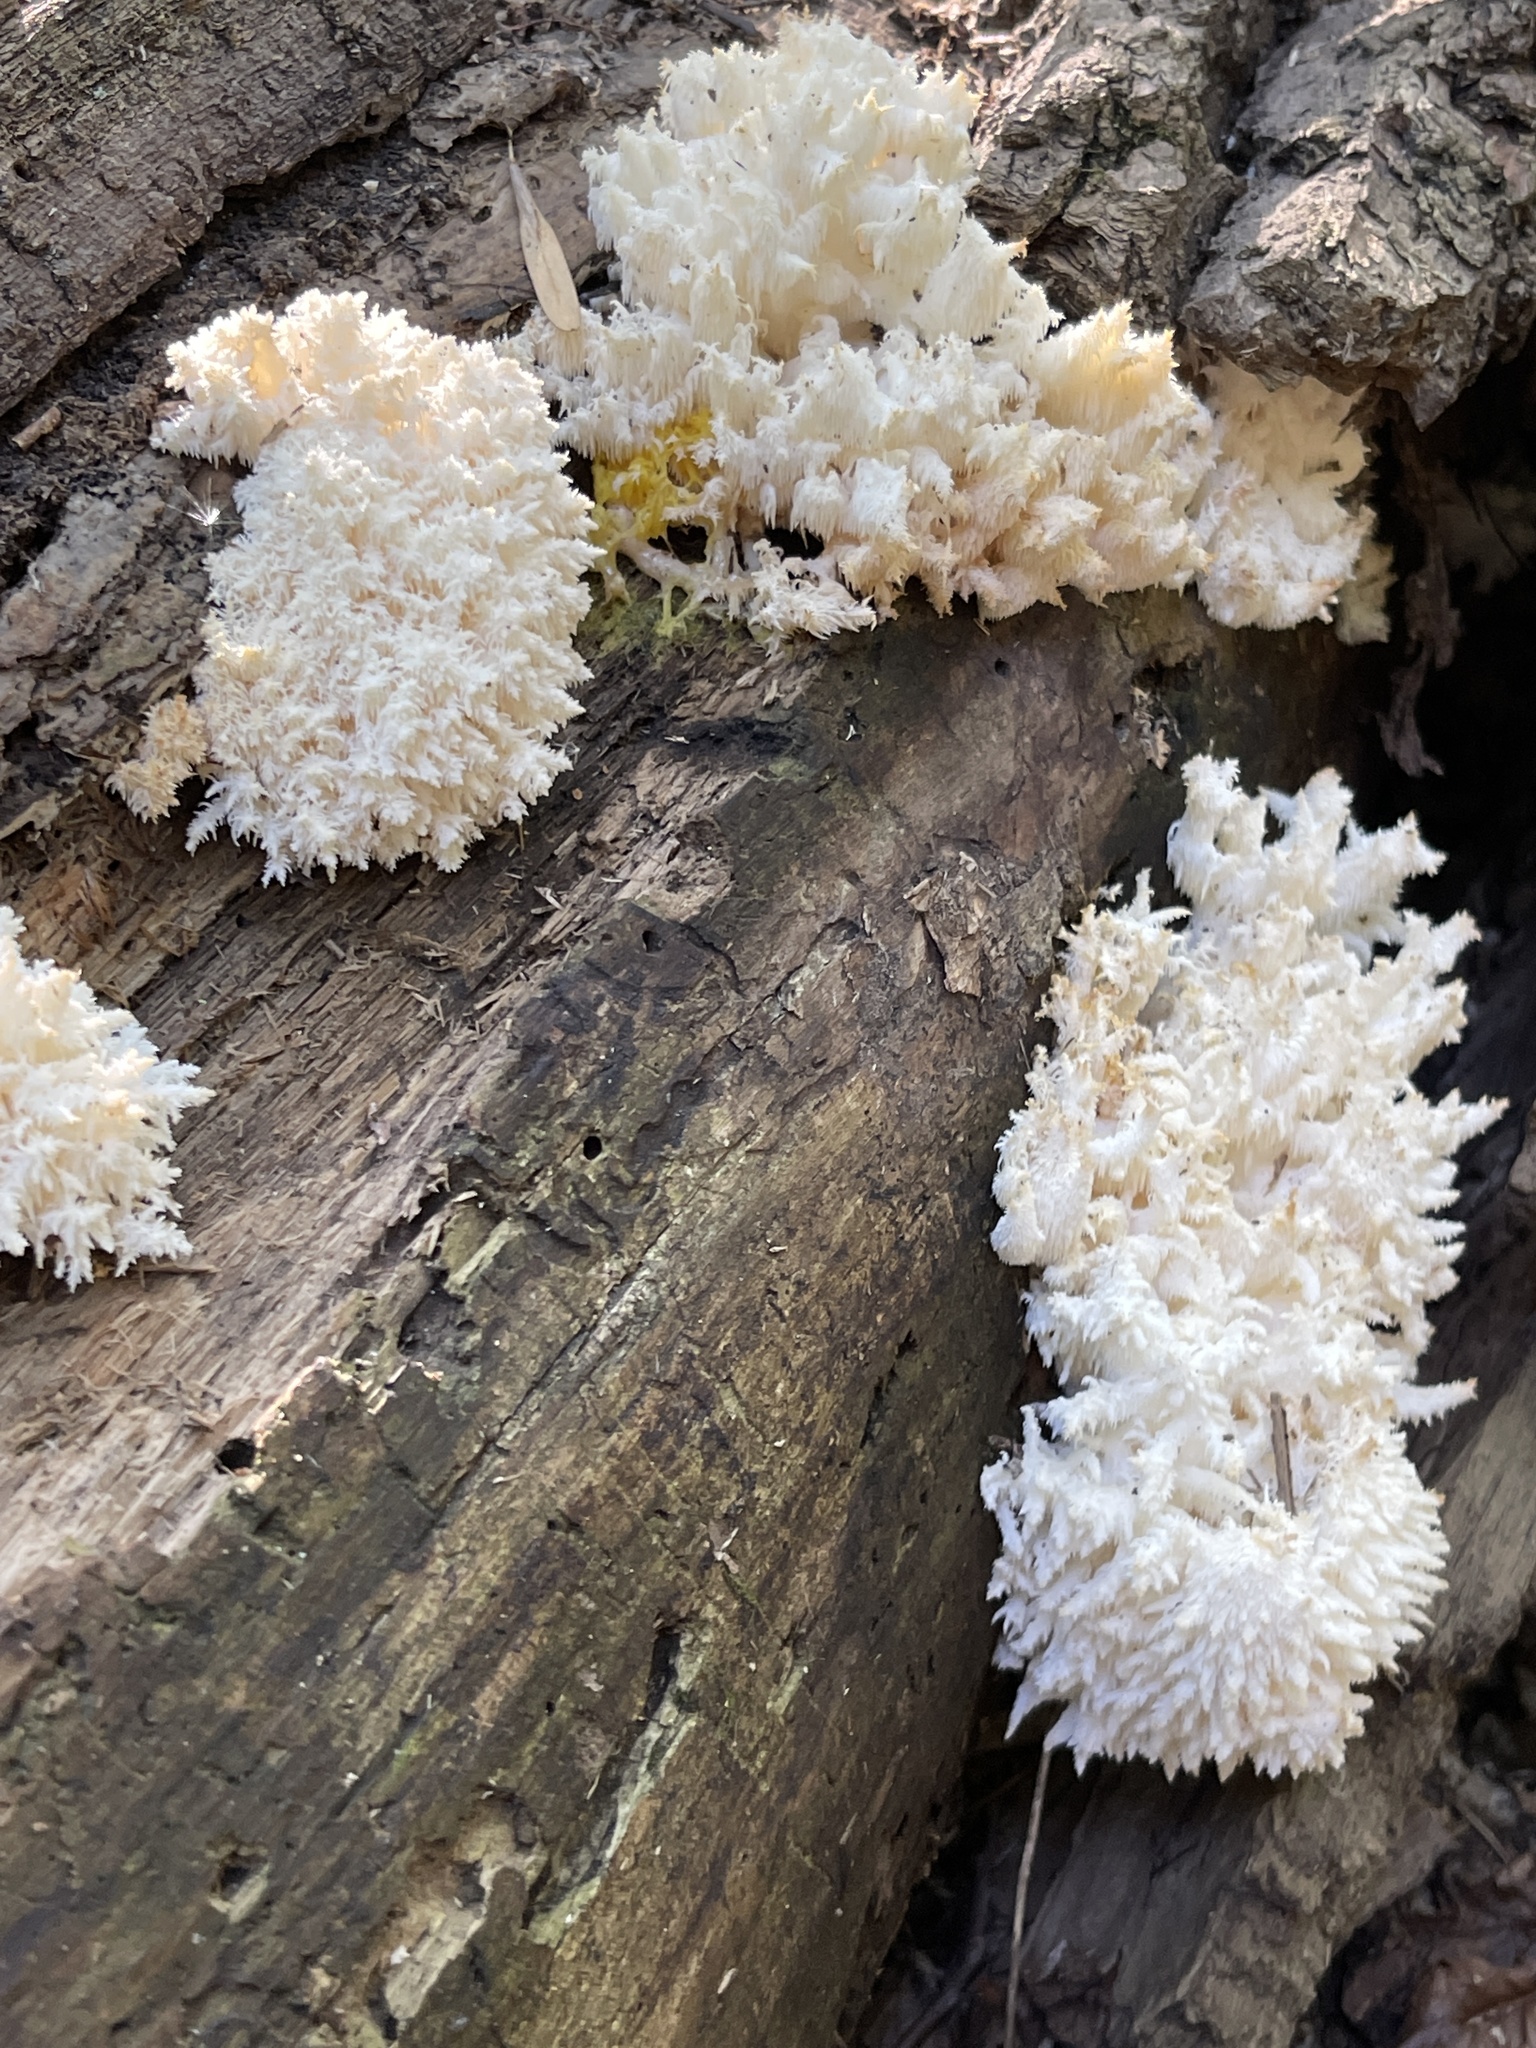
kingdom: Fungi
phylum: Basidiomycota
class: Agaricomycetes
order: Russulales
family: Hericiaceae
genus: Hericium
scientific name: Hericium coralloides
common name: Coral tooth
